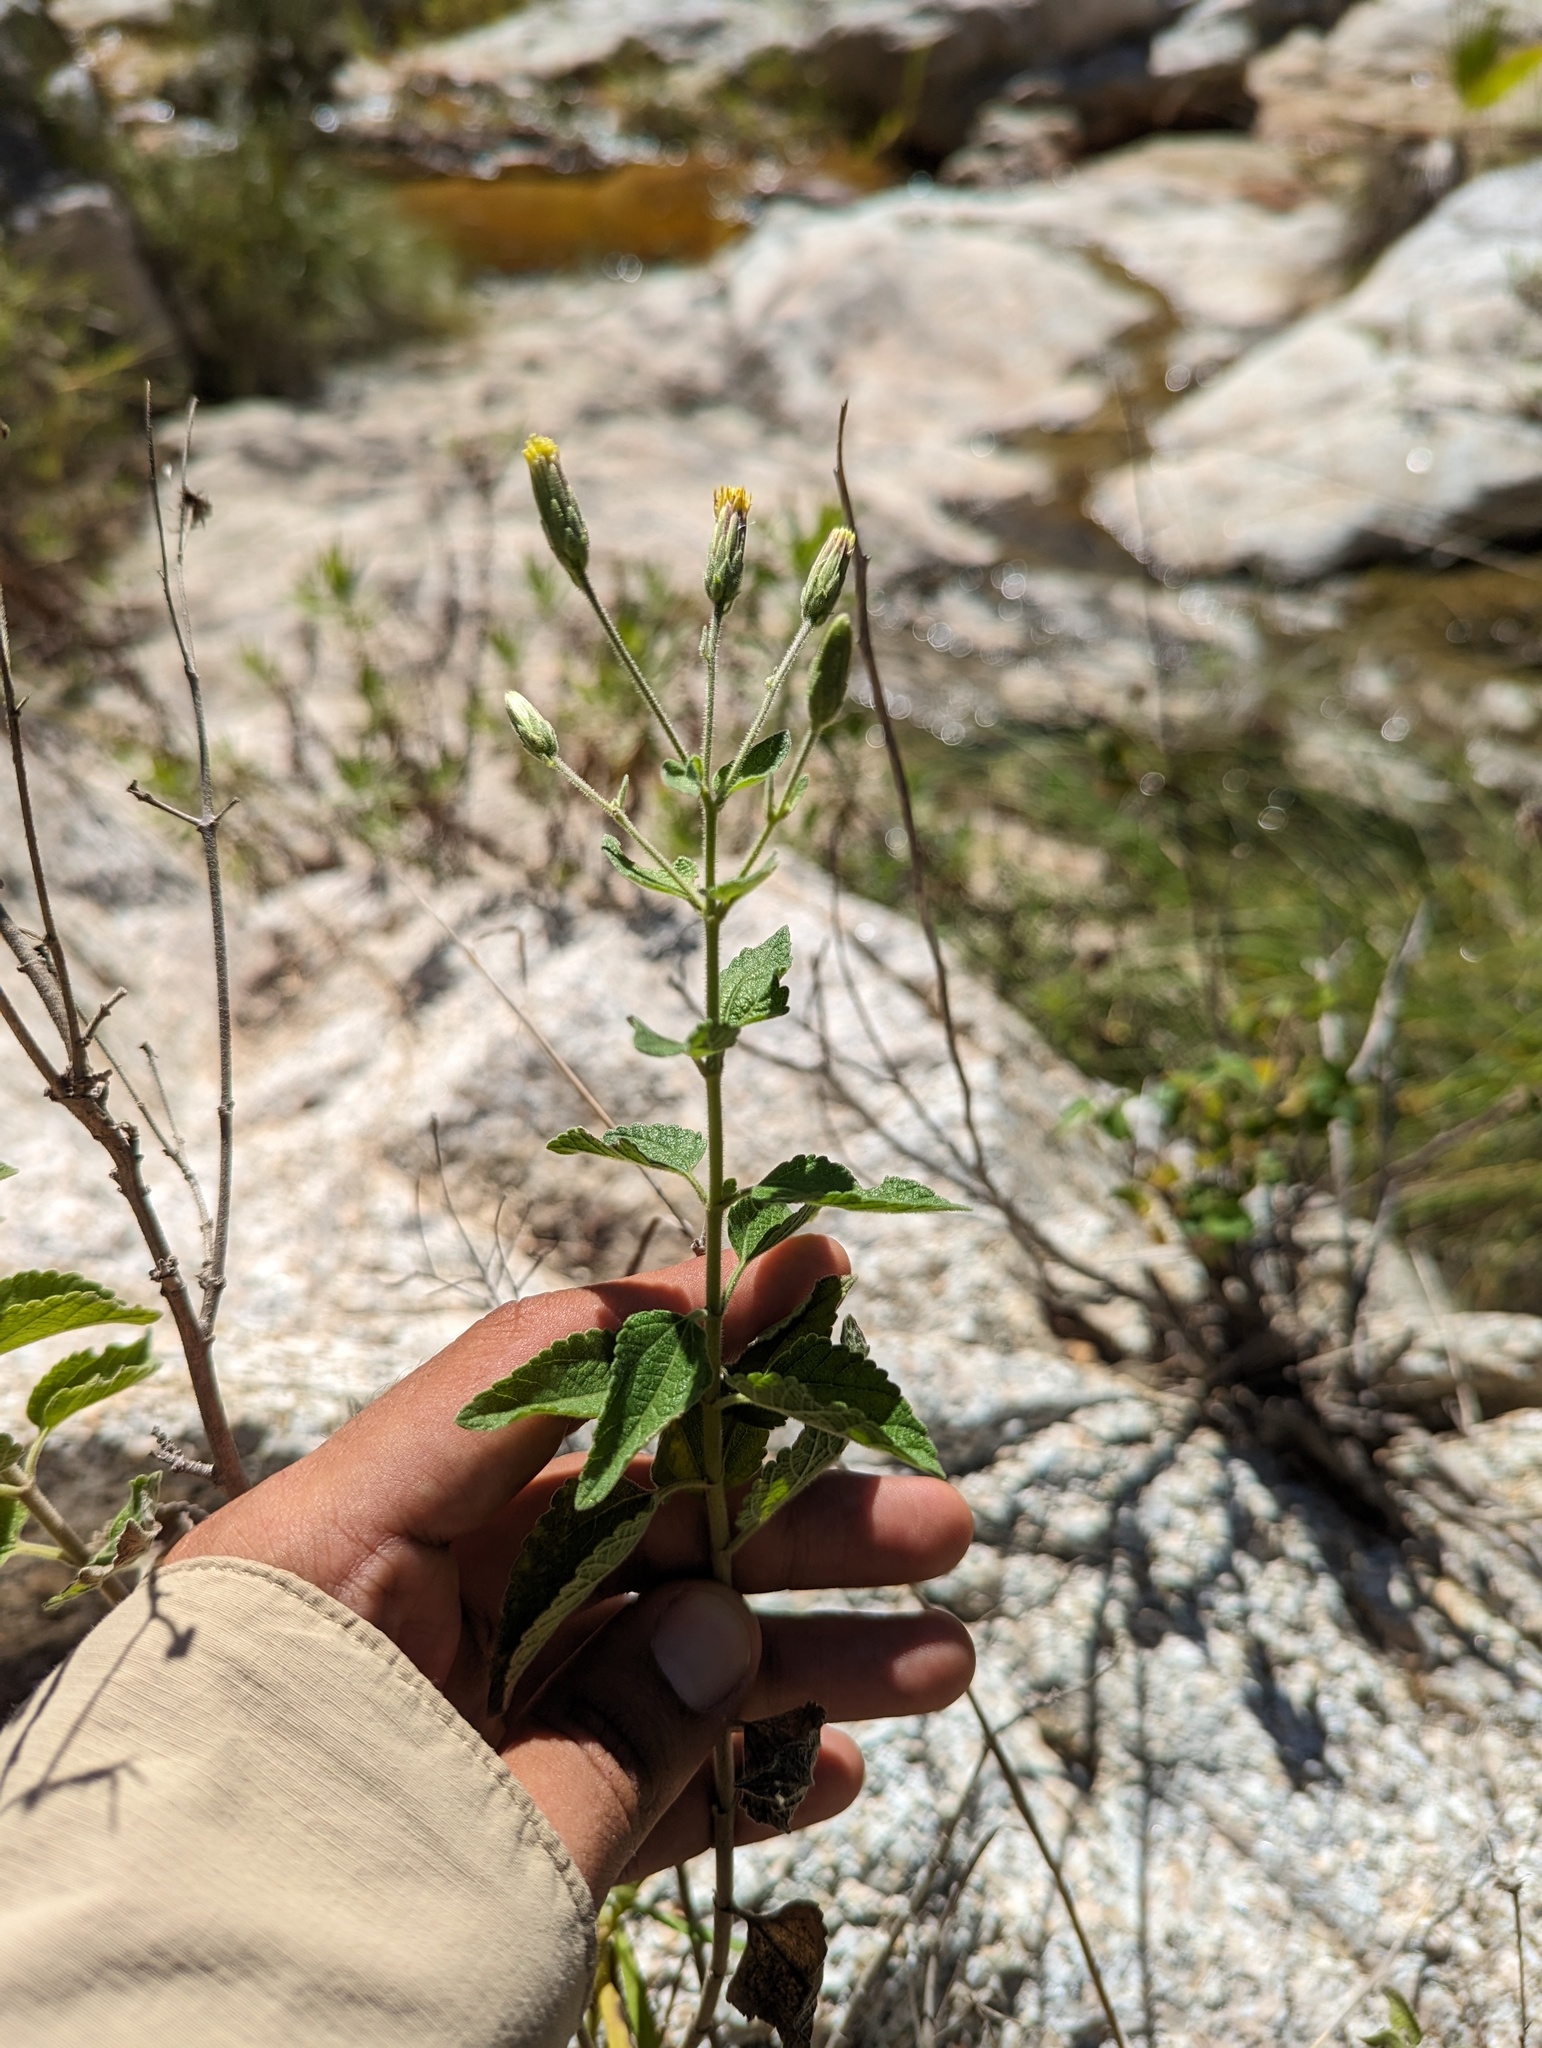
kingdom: Plantae
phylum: Tracheophyta
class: Magnoliopsida
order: Asterales
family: Asteraceae
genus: Brickellia
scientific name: Brickellia peninsularis
